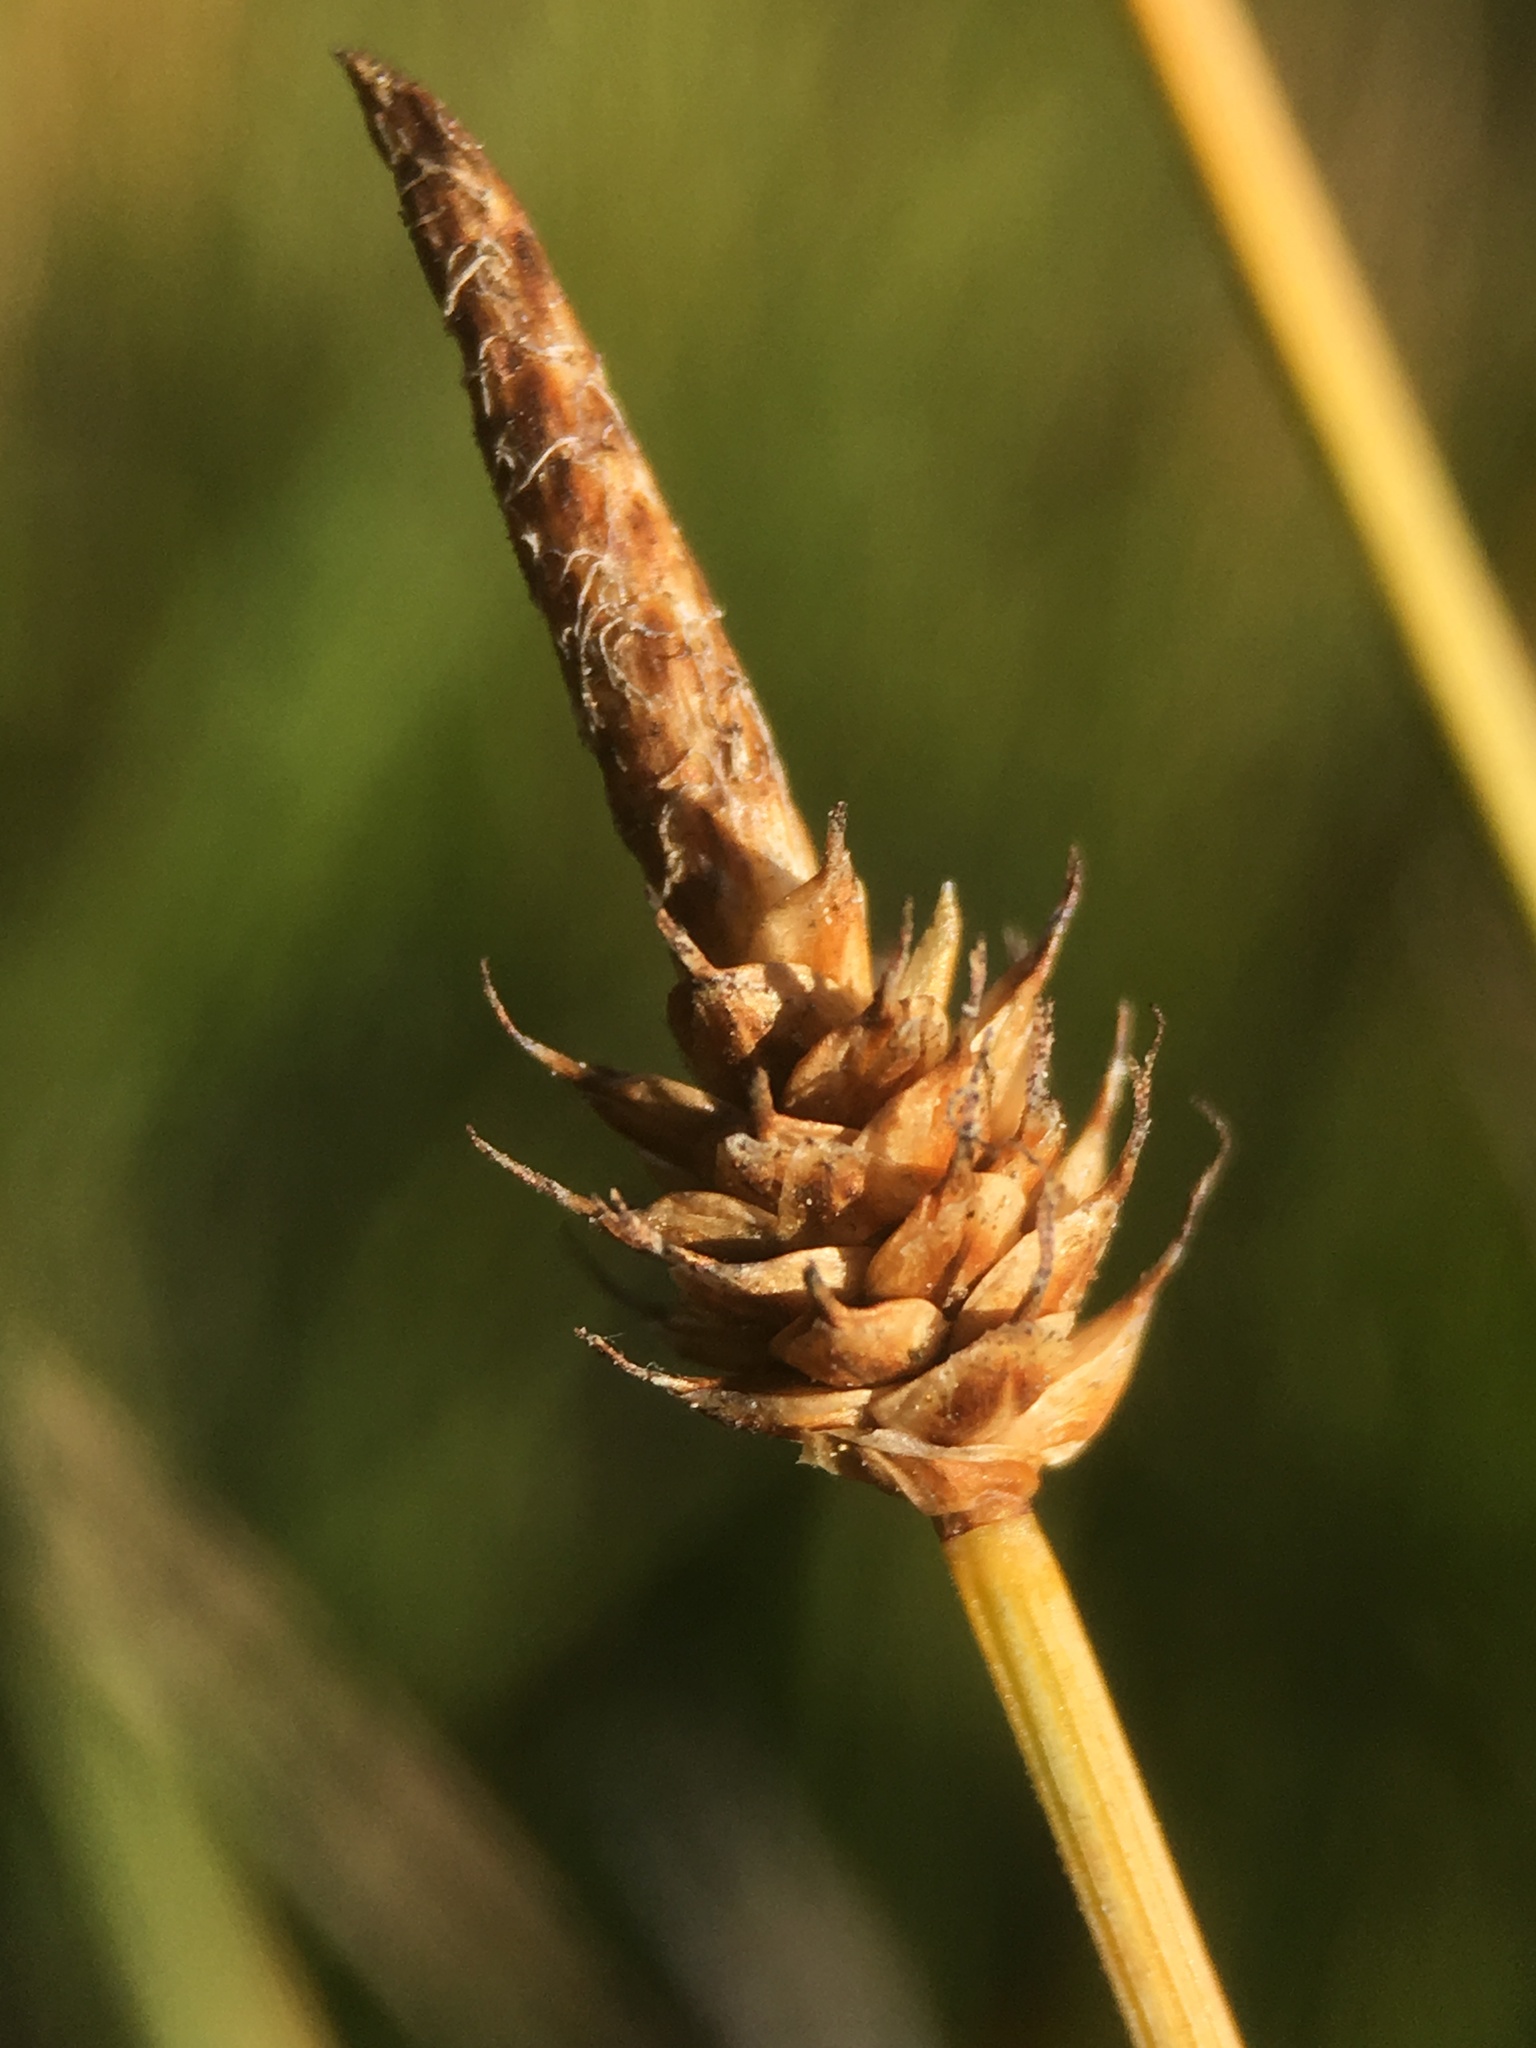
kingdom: Plantae
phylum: Tracheophyta
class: Liliopsida
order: Poales
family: Cyperaceae
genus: Carex
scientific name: Carex capitata
